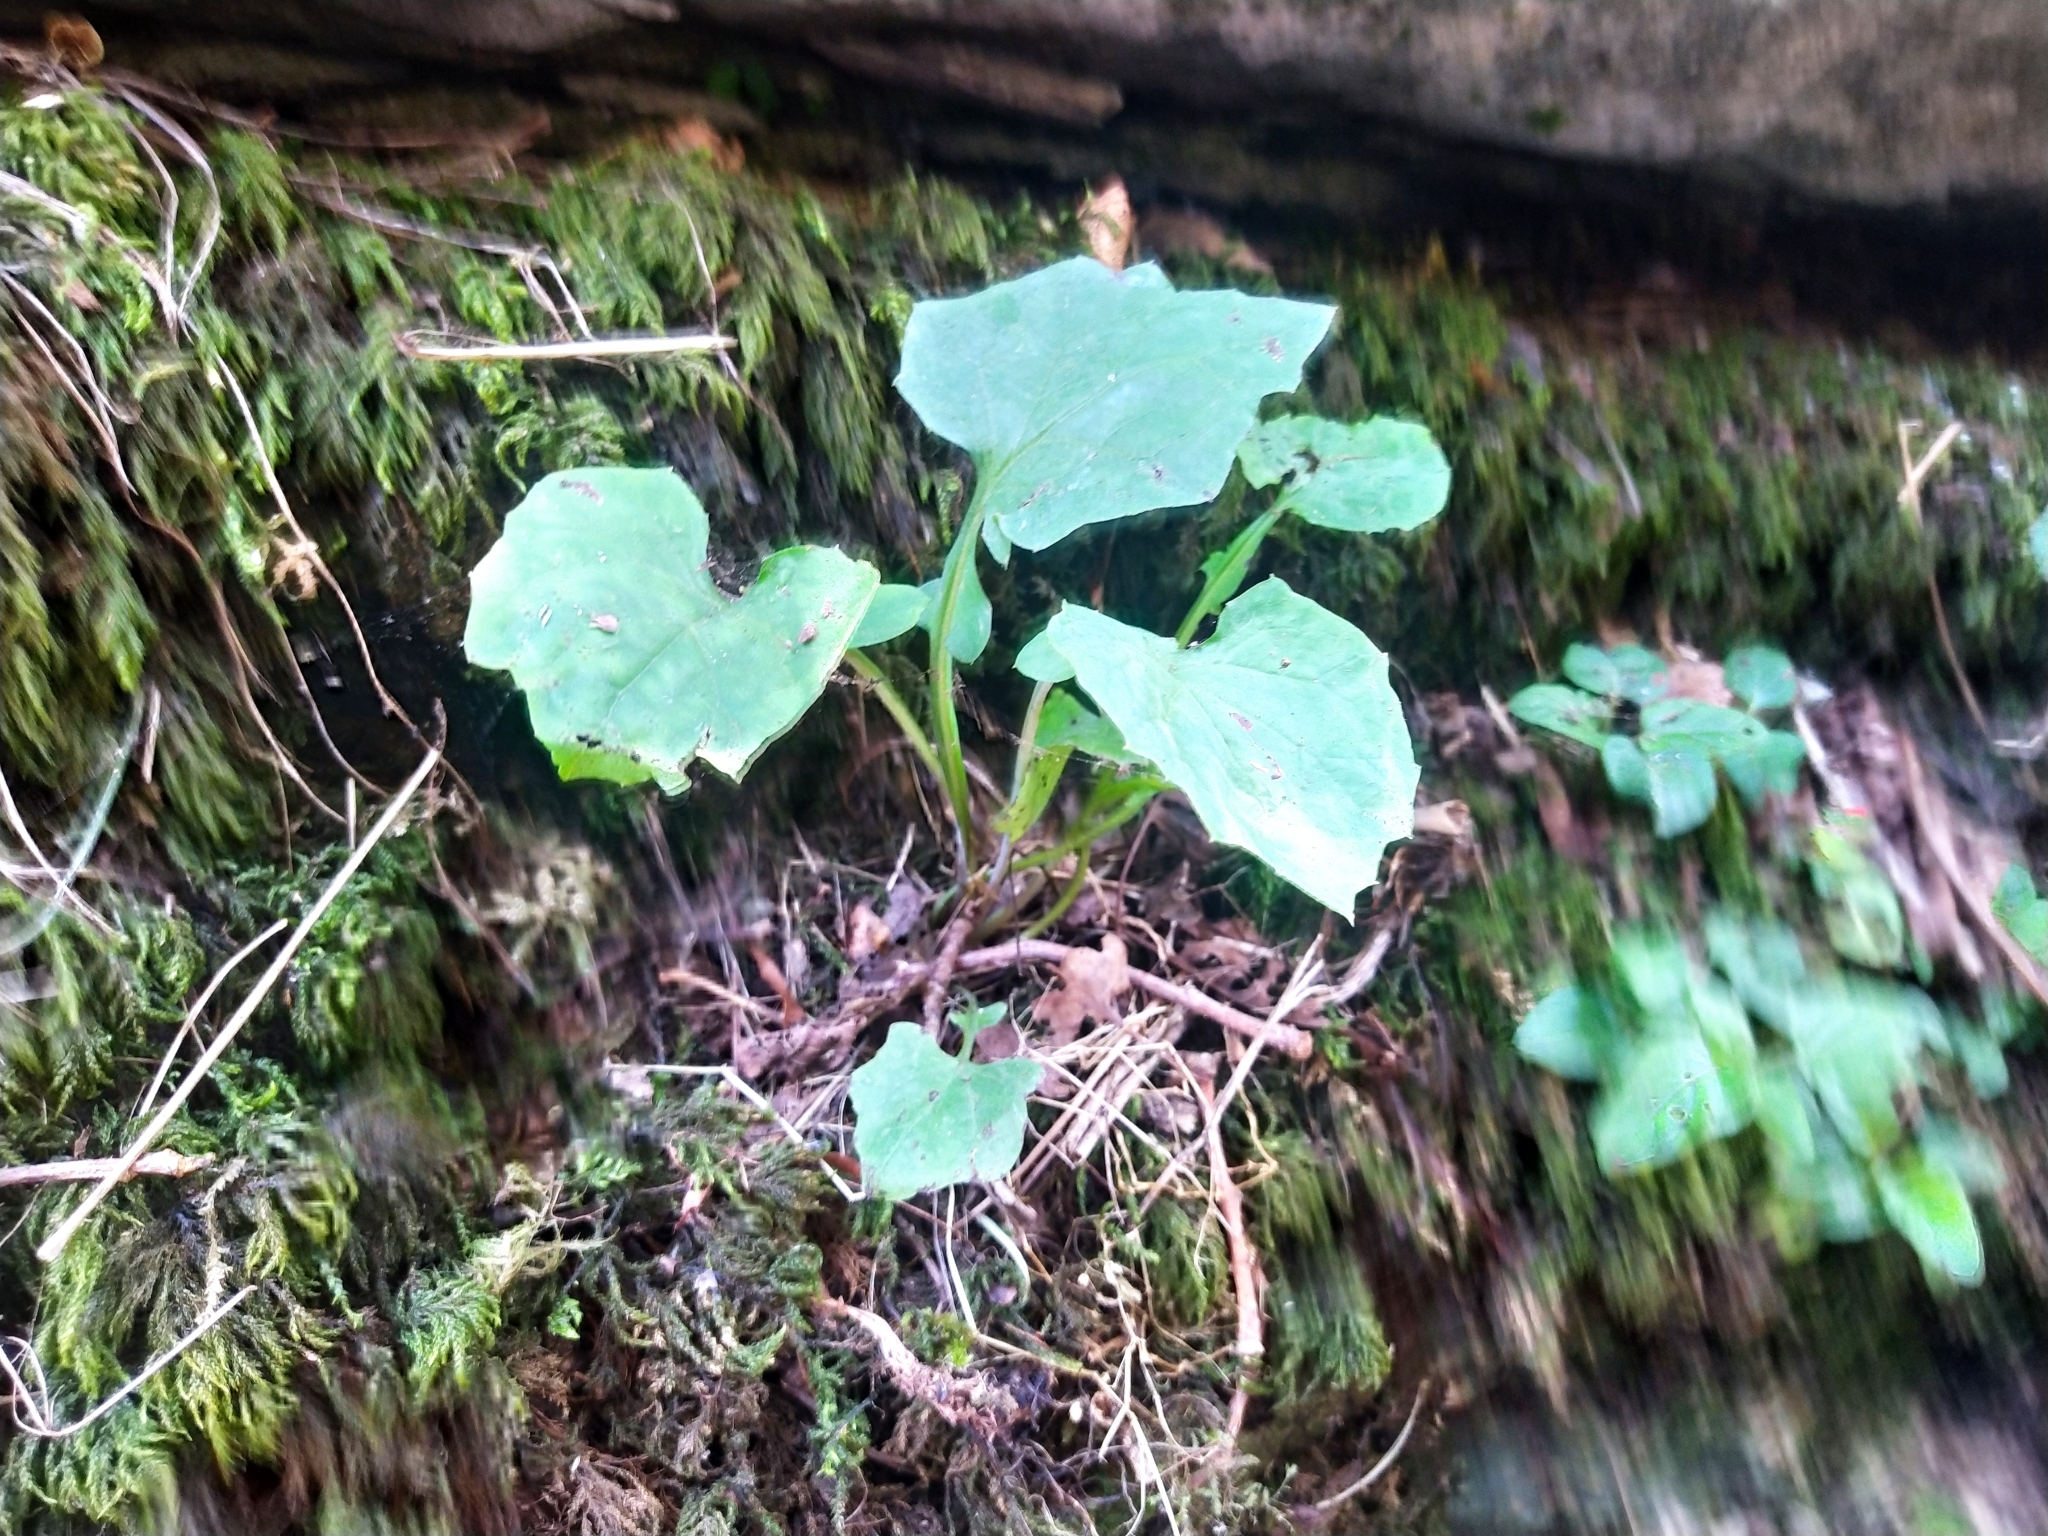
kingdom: Plantae
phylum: Tracheophyta
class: Magnoliopsida
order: Asterales
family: Asteraceae
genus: Mycelis
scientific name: Mycelis muralis
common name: Wall lettuce
